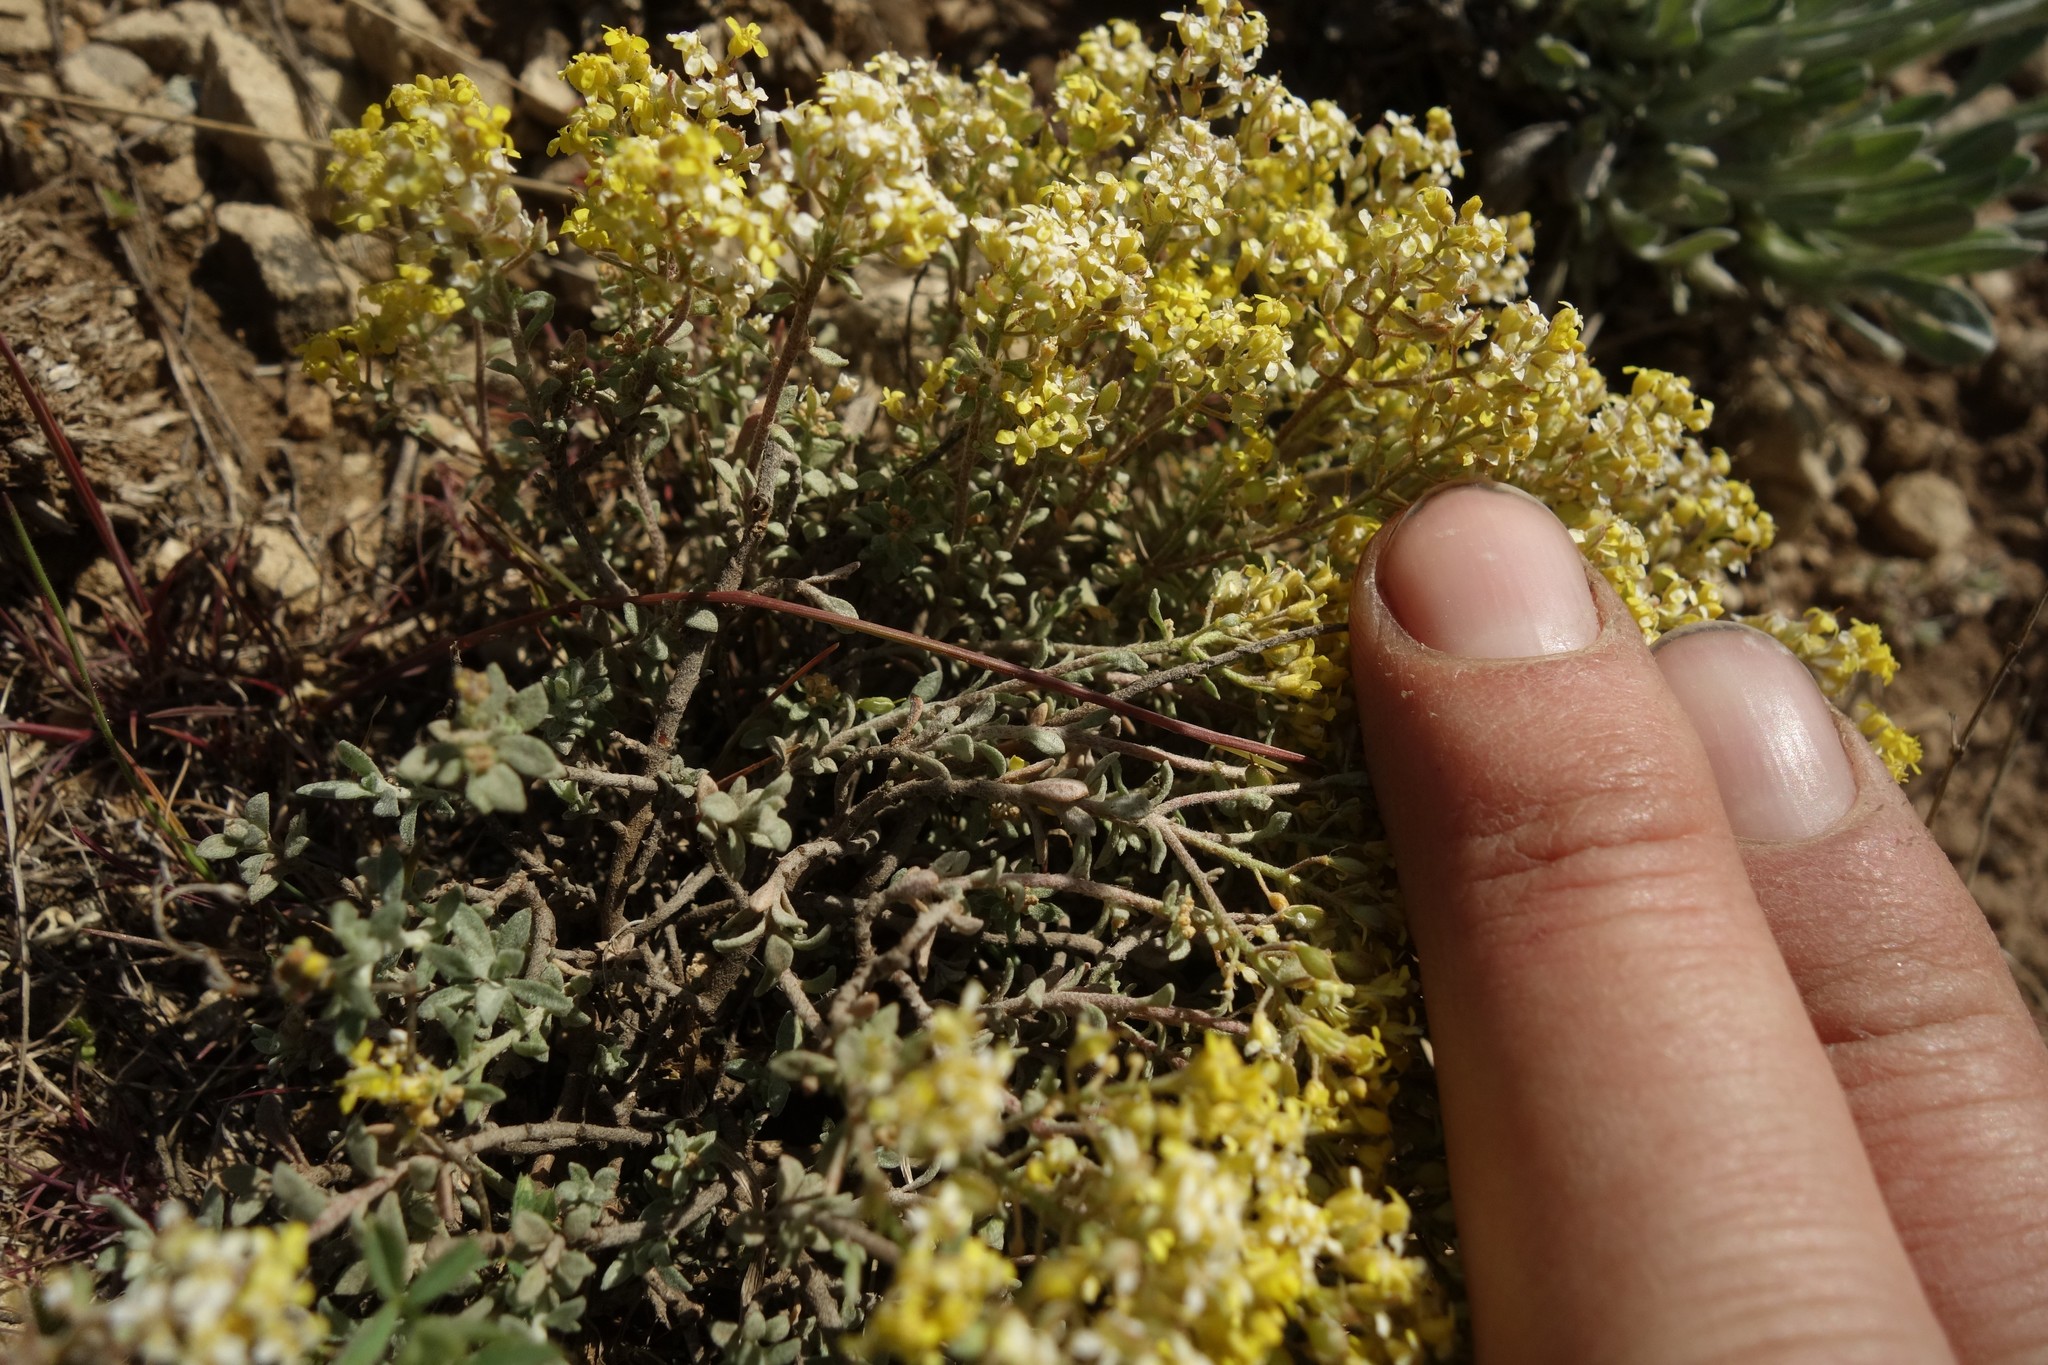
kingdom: Plantae
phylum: Tracheophyta
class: Magnoliopsida
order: Brassicales
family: Brassicaceae
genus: Odontarrhena
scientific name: Odontarrhena tortuosa
